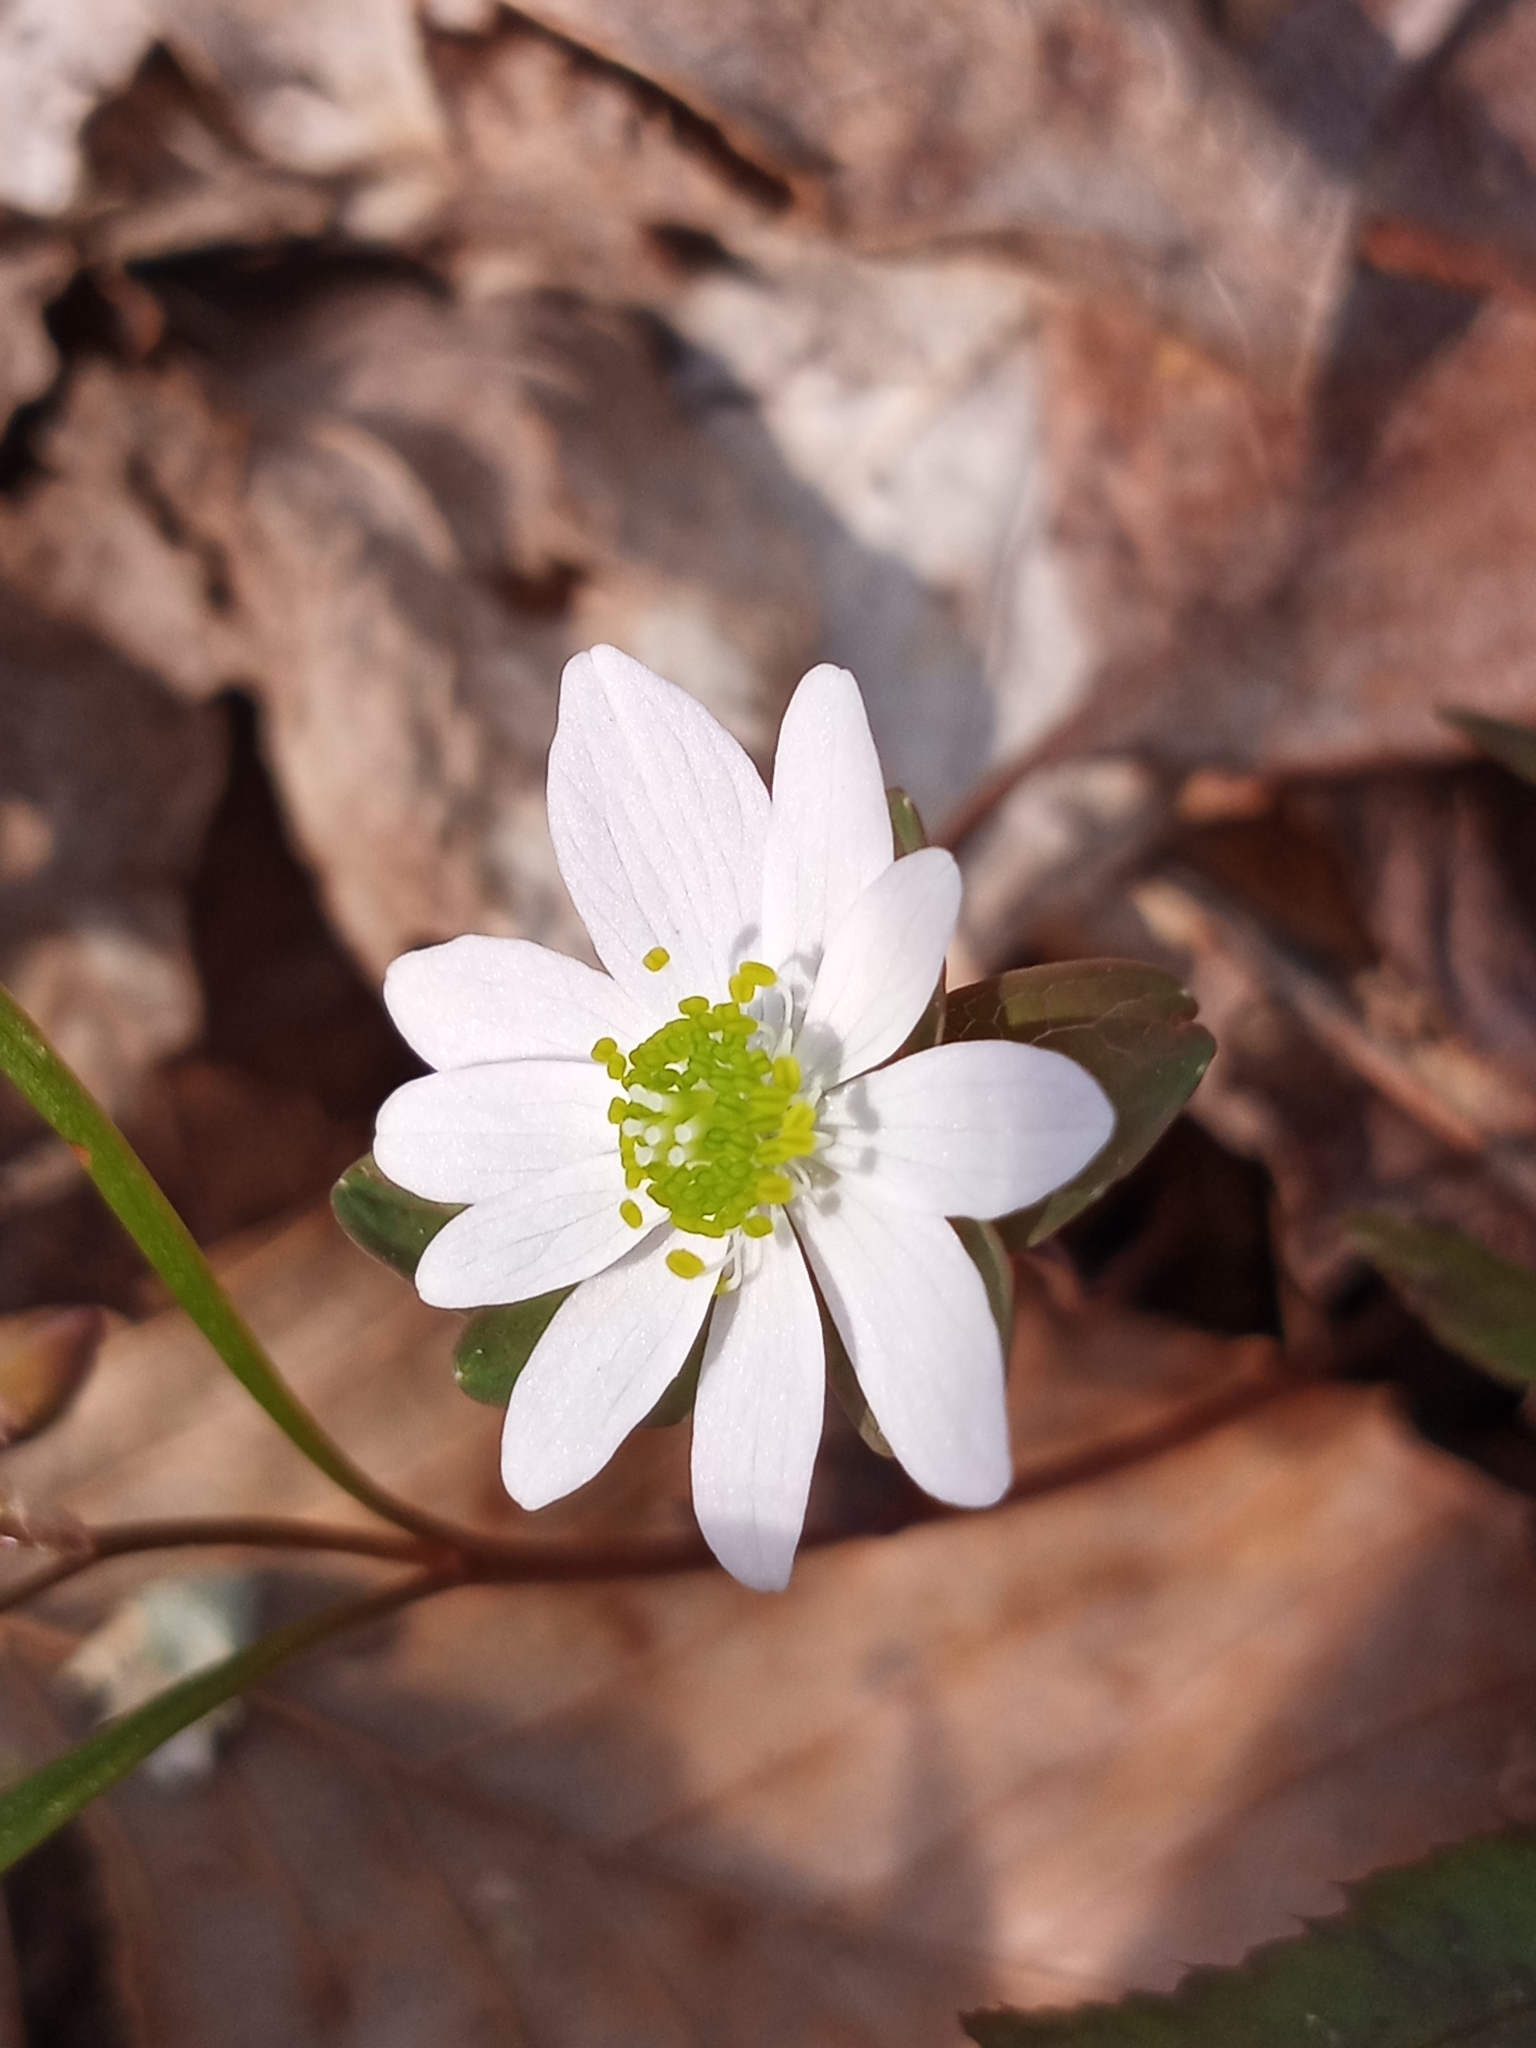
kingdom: Plantae
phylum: Tracheophyta
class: Magnoliopsida
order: Ranunculales
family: Ranunculaceae
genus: Thalictrum
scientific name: Thalictrum thalictroides
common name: Rue-anemone
